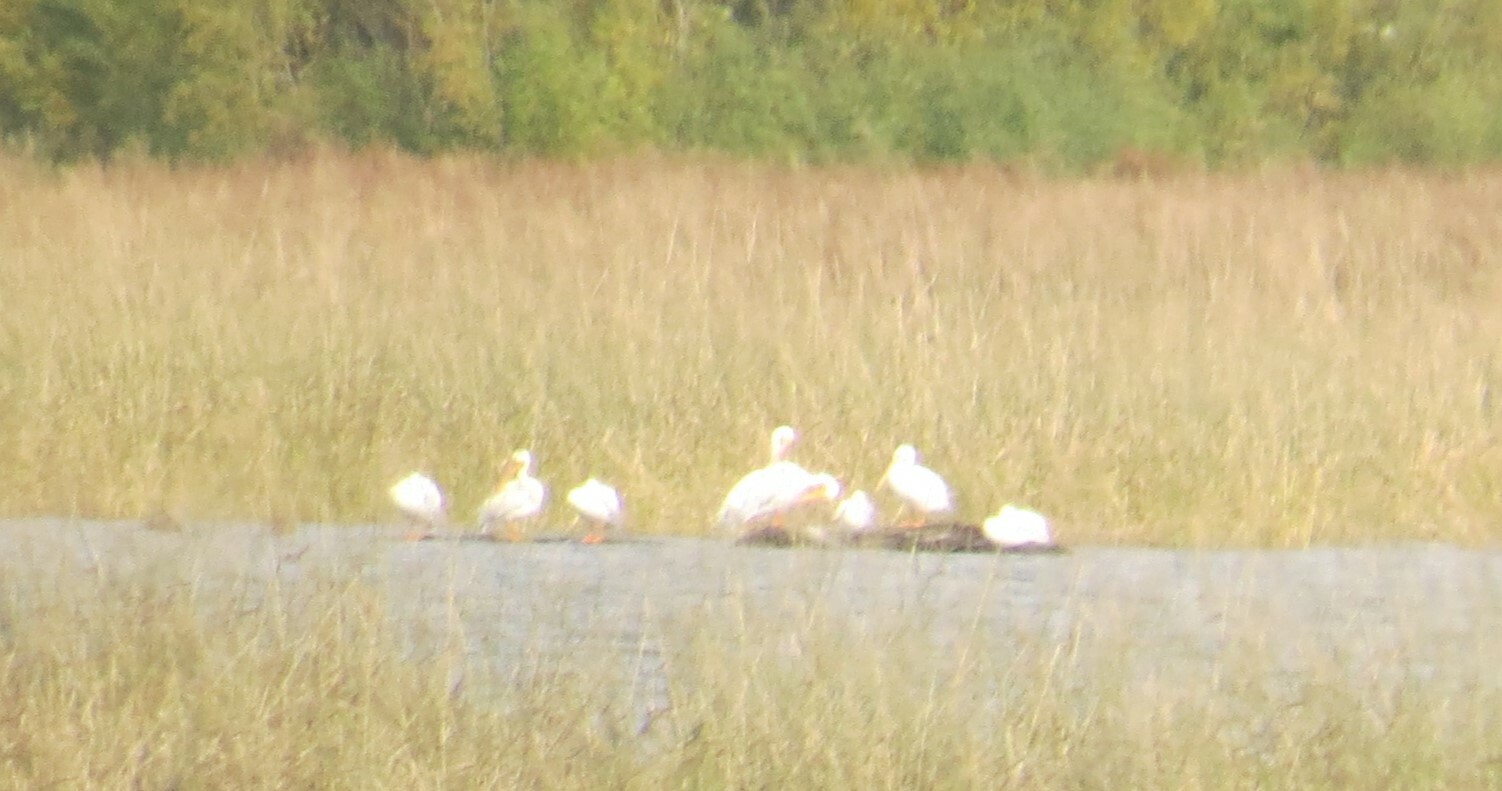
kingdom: Animalia
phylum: Chordata
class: Aves
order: Pelecaniformes
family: Pelecanidae
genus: Pelecanus
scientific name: Pelecanus erythrorhynchos
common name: American white pelican
